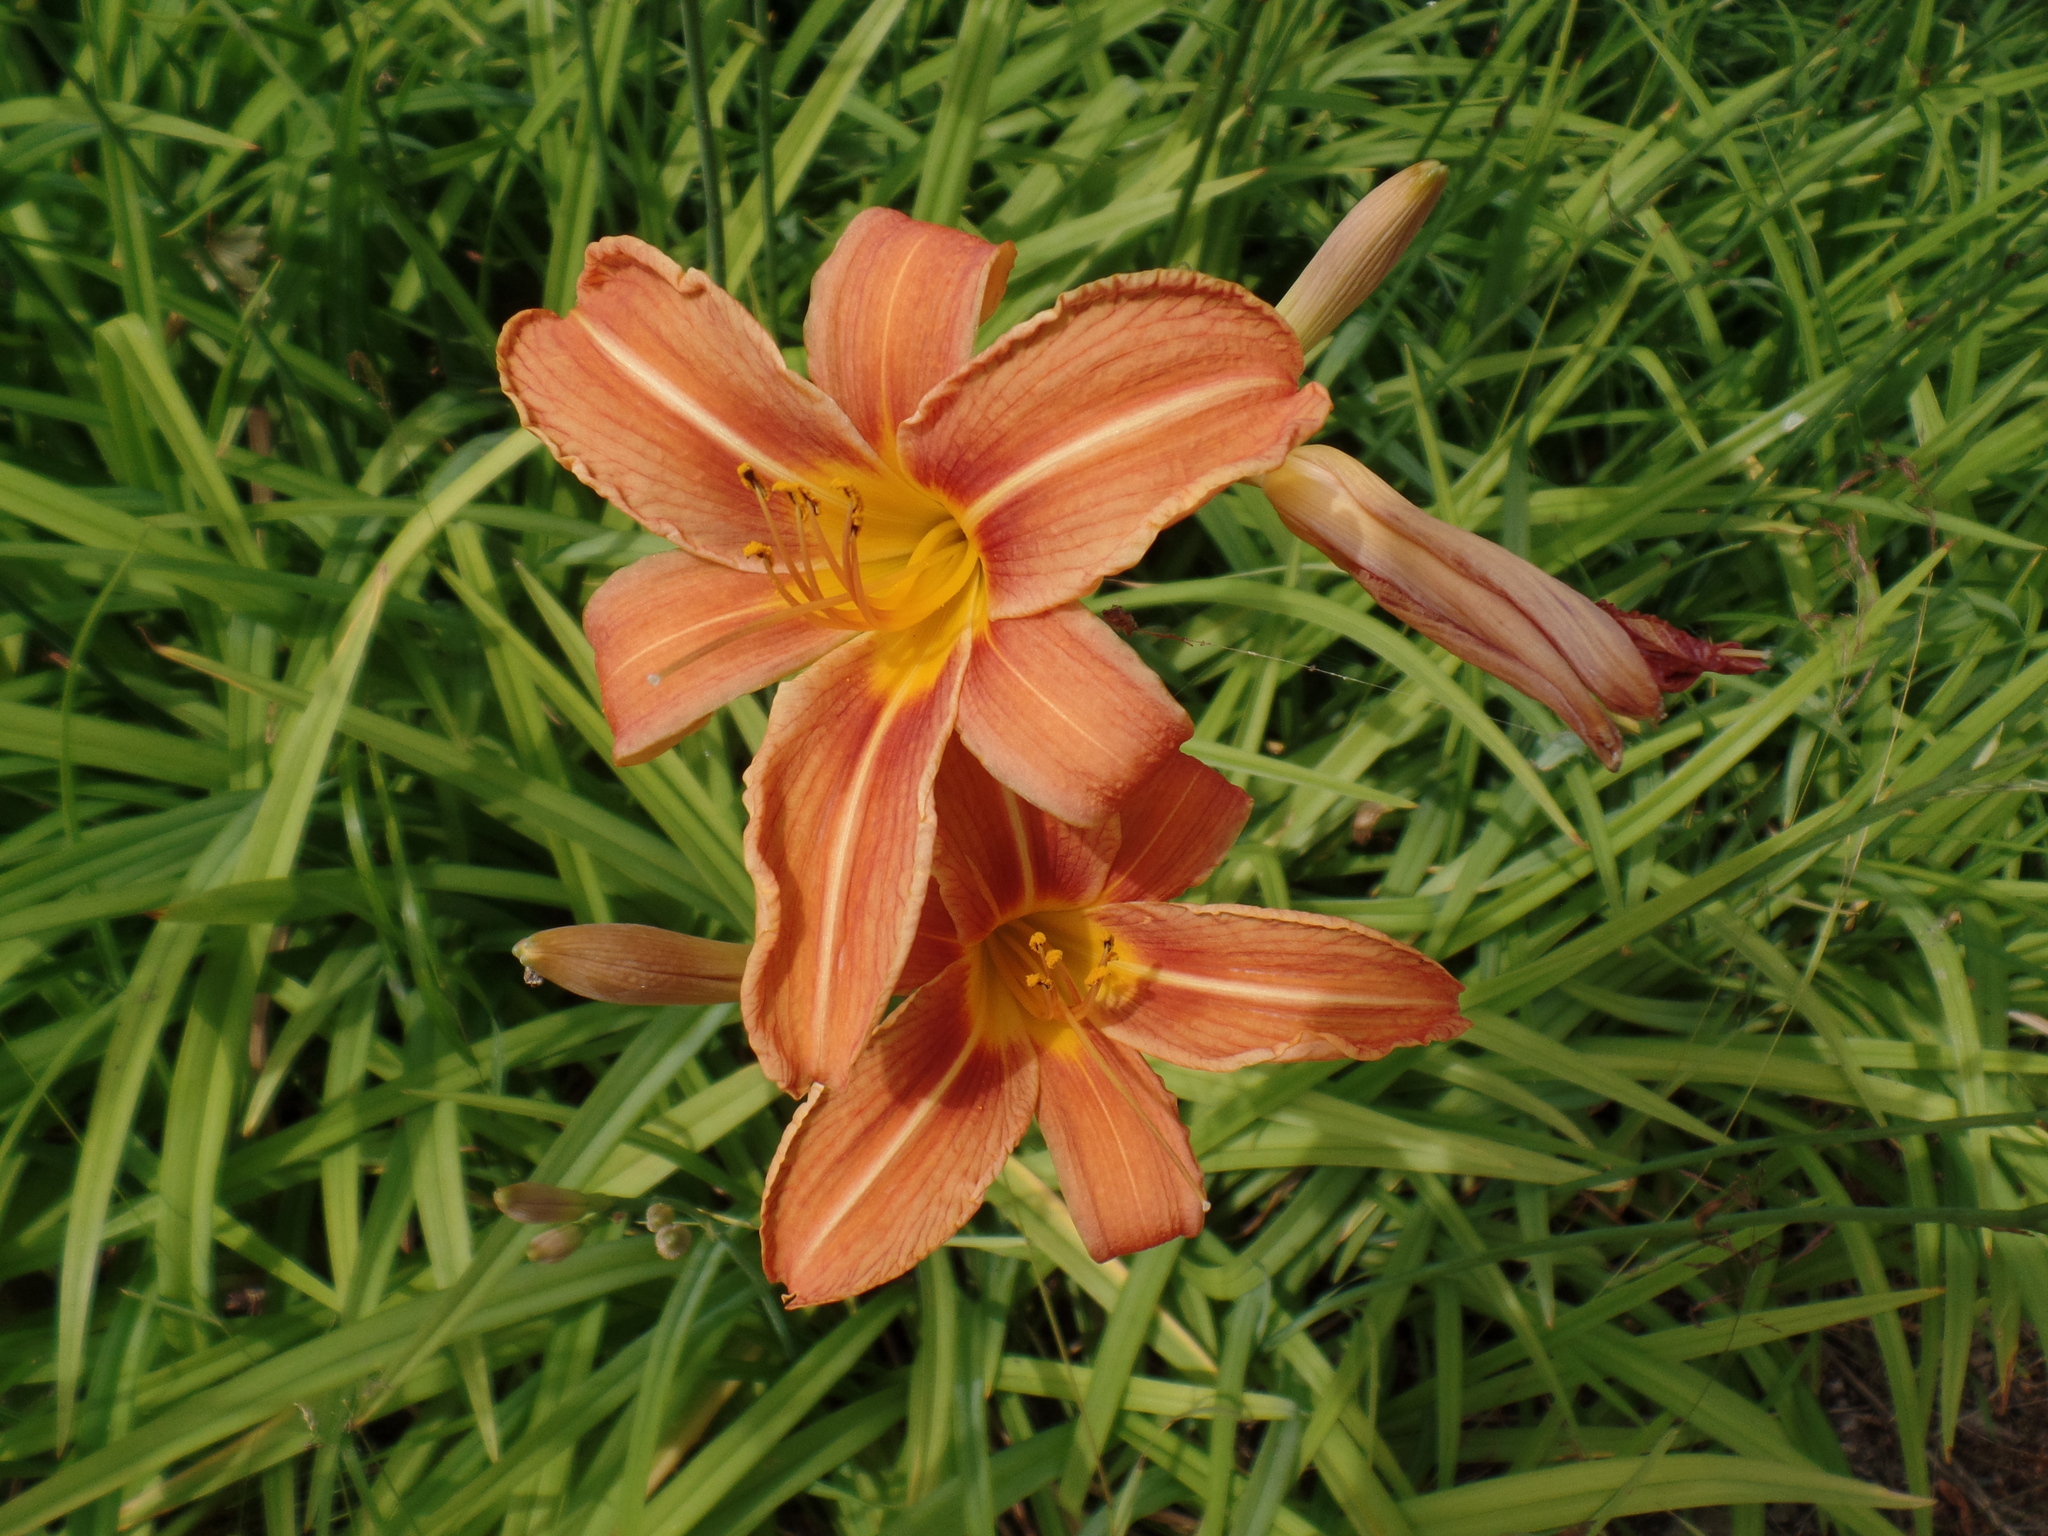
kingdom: Plantae
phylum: Tracheophyta
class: Liliopsida
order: Asparagales
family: Asphodelaceae
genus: Hemerocallis
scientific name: Hemerocallis fulva
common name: Orange day-lily
